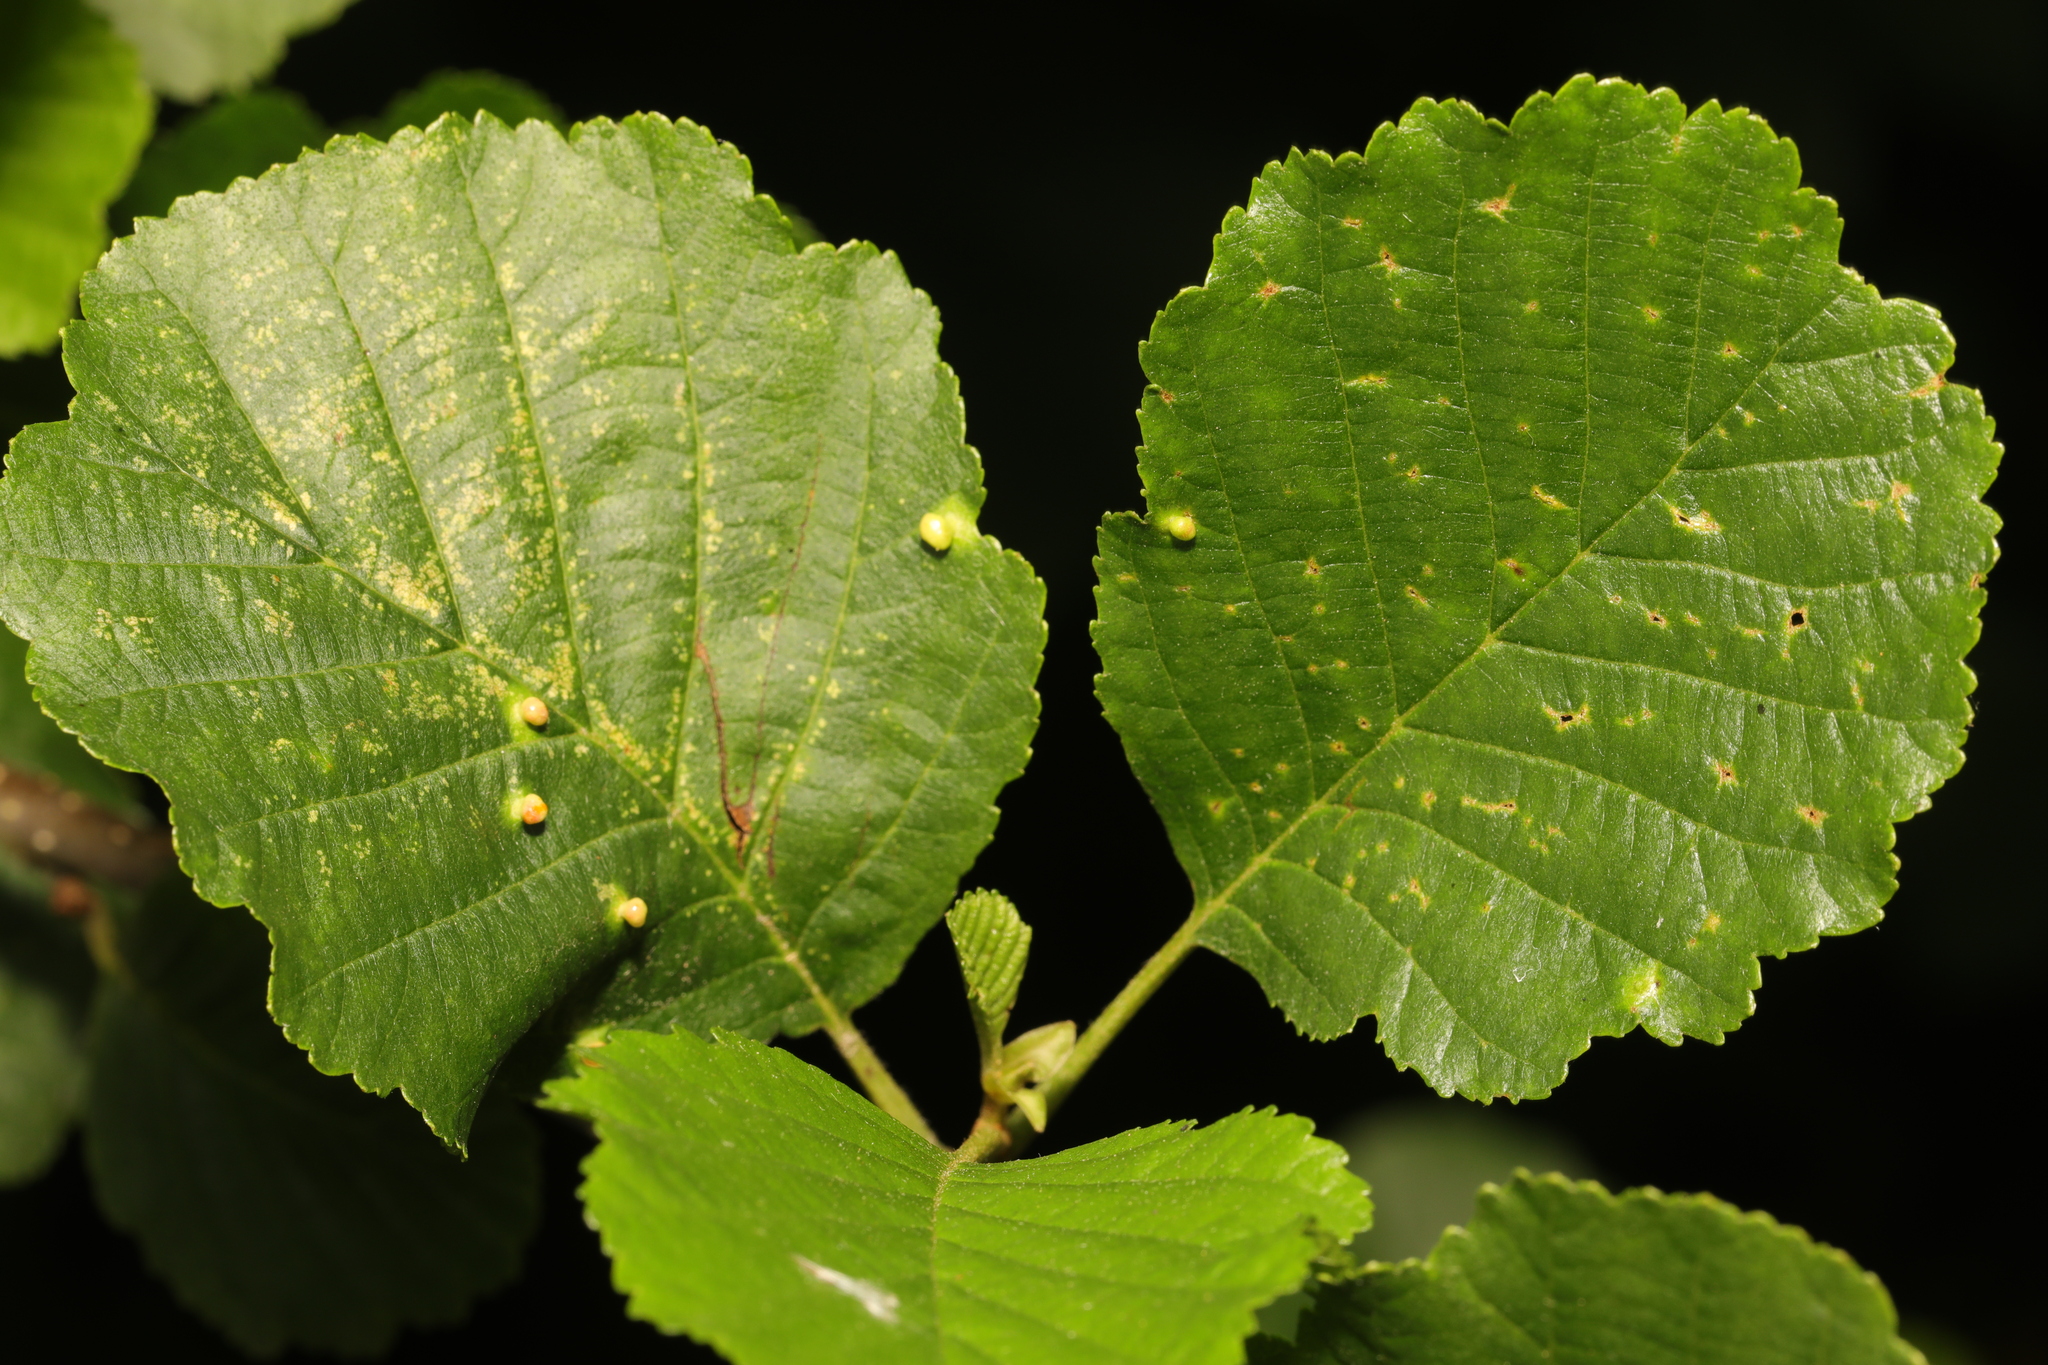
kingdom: Plantae
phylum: Tracheophyta
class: Magnoliopsida
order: Fagales
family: Betulaceae
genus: Alnus
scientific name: Alnus glutinosa
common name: Black alder
